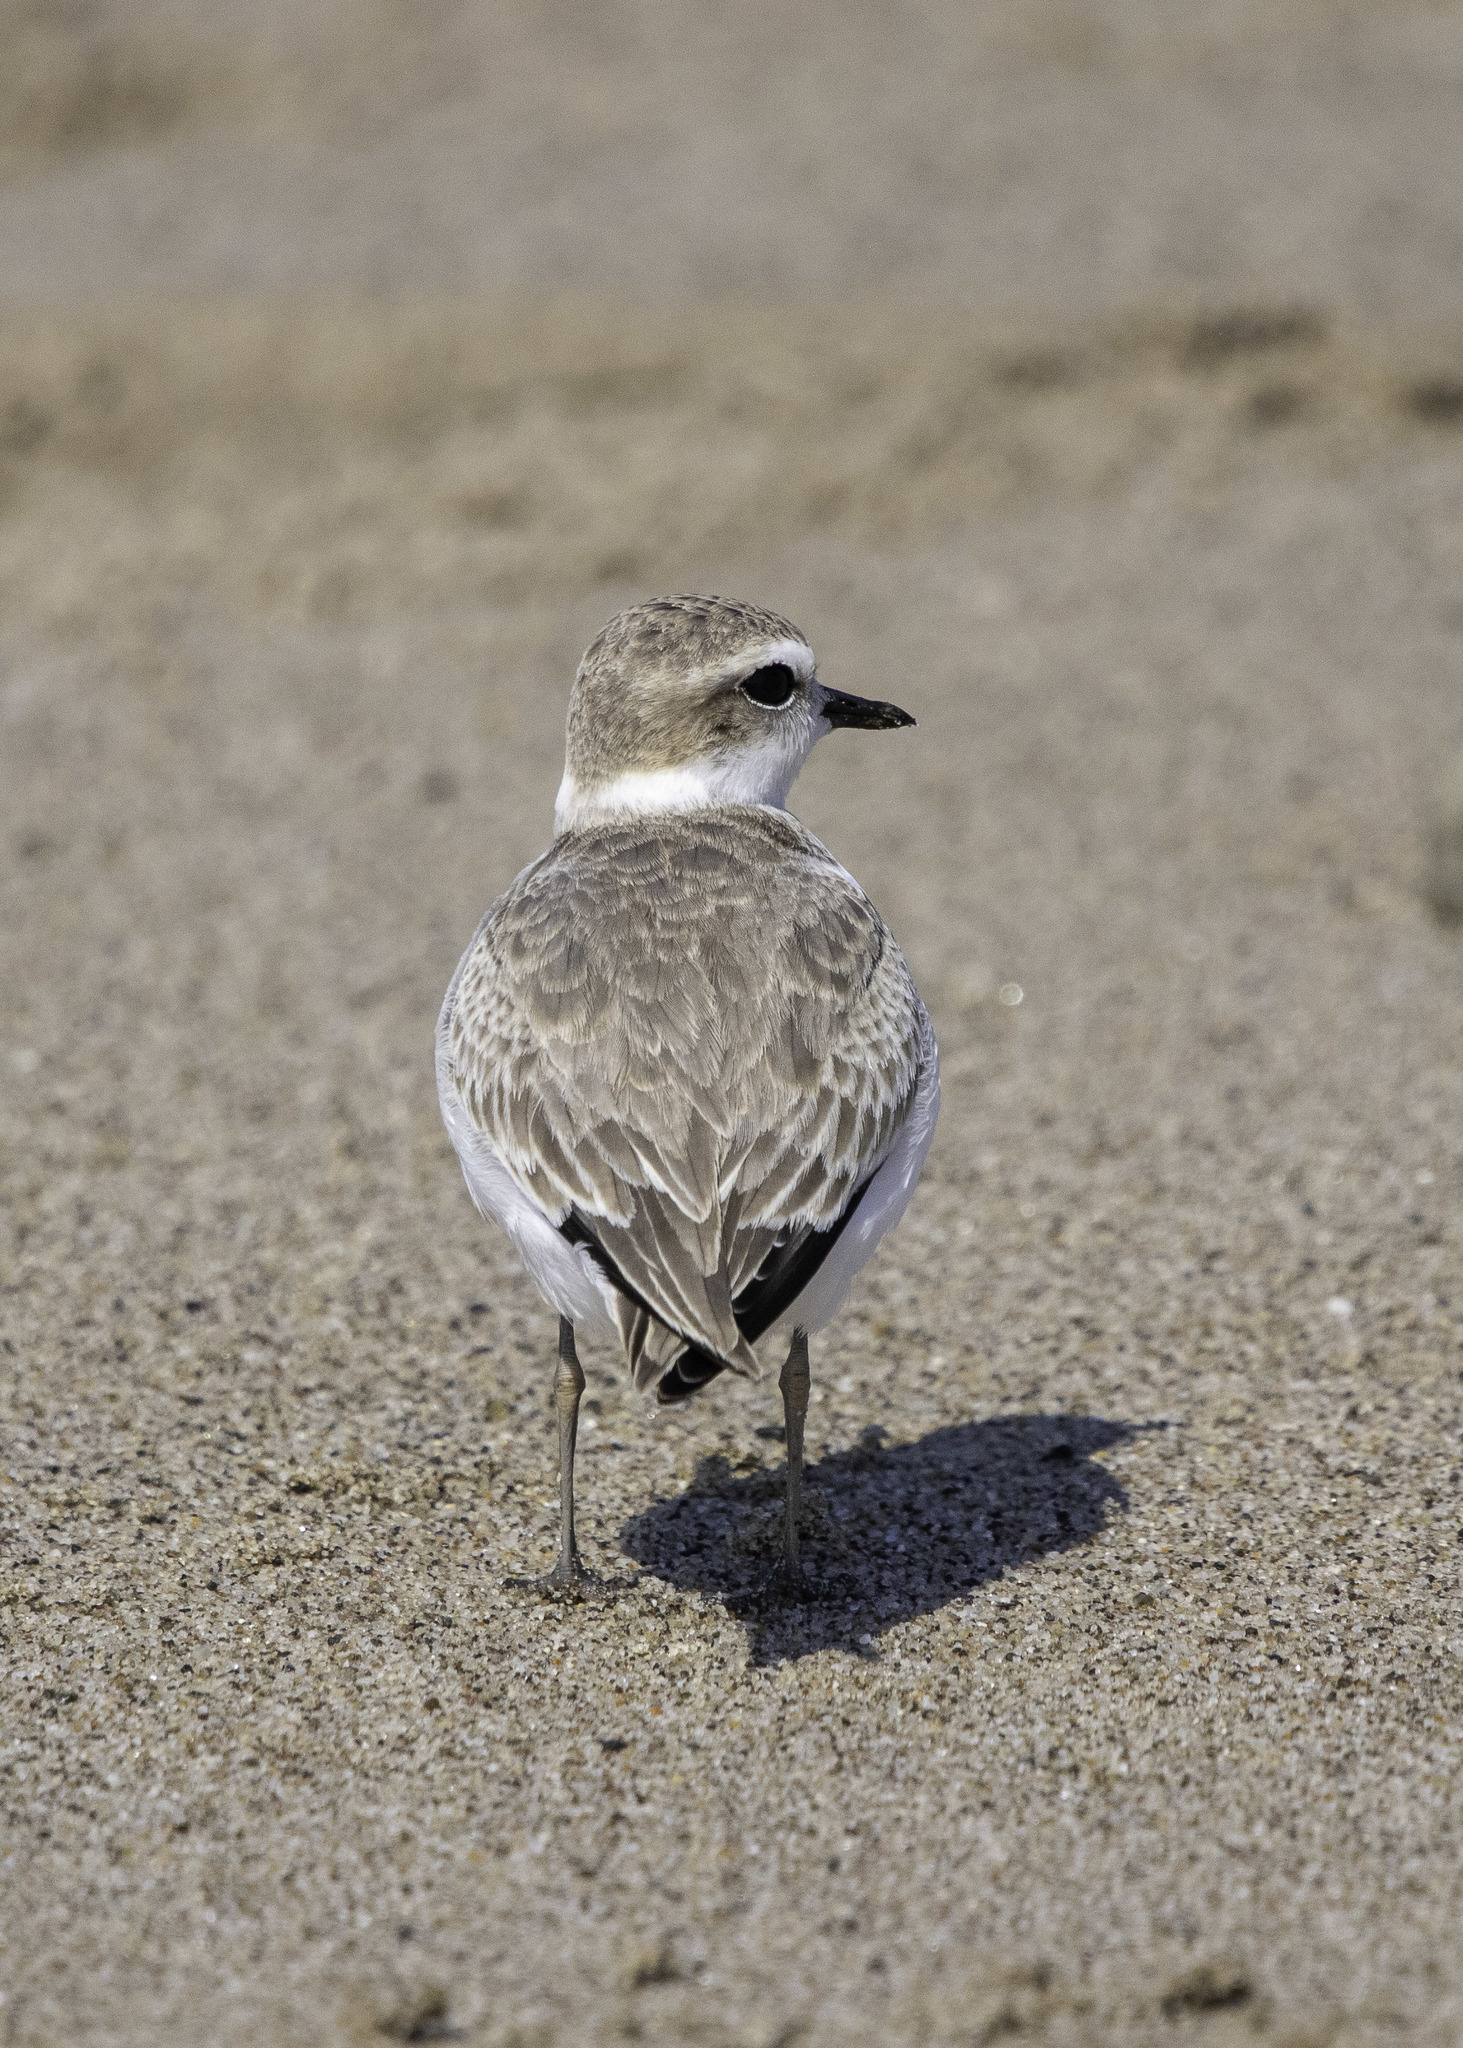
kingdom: Animalia
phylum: Chordata
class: Aves
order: Charadriiformes
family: Charadriidae
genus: Anarhynchus
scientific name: Anarhynchus
